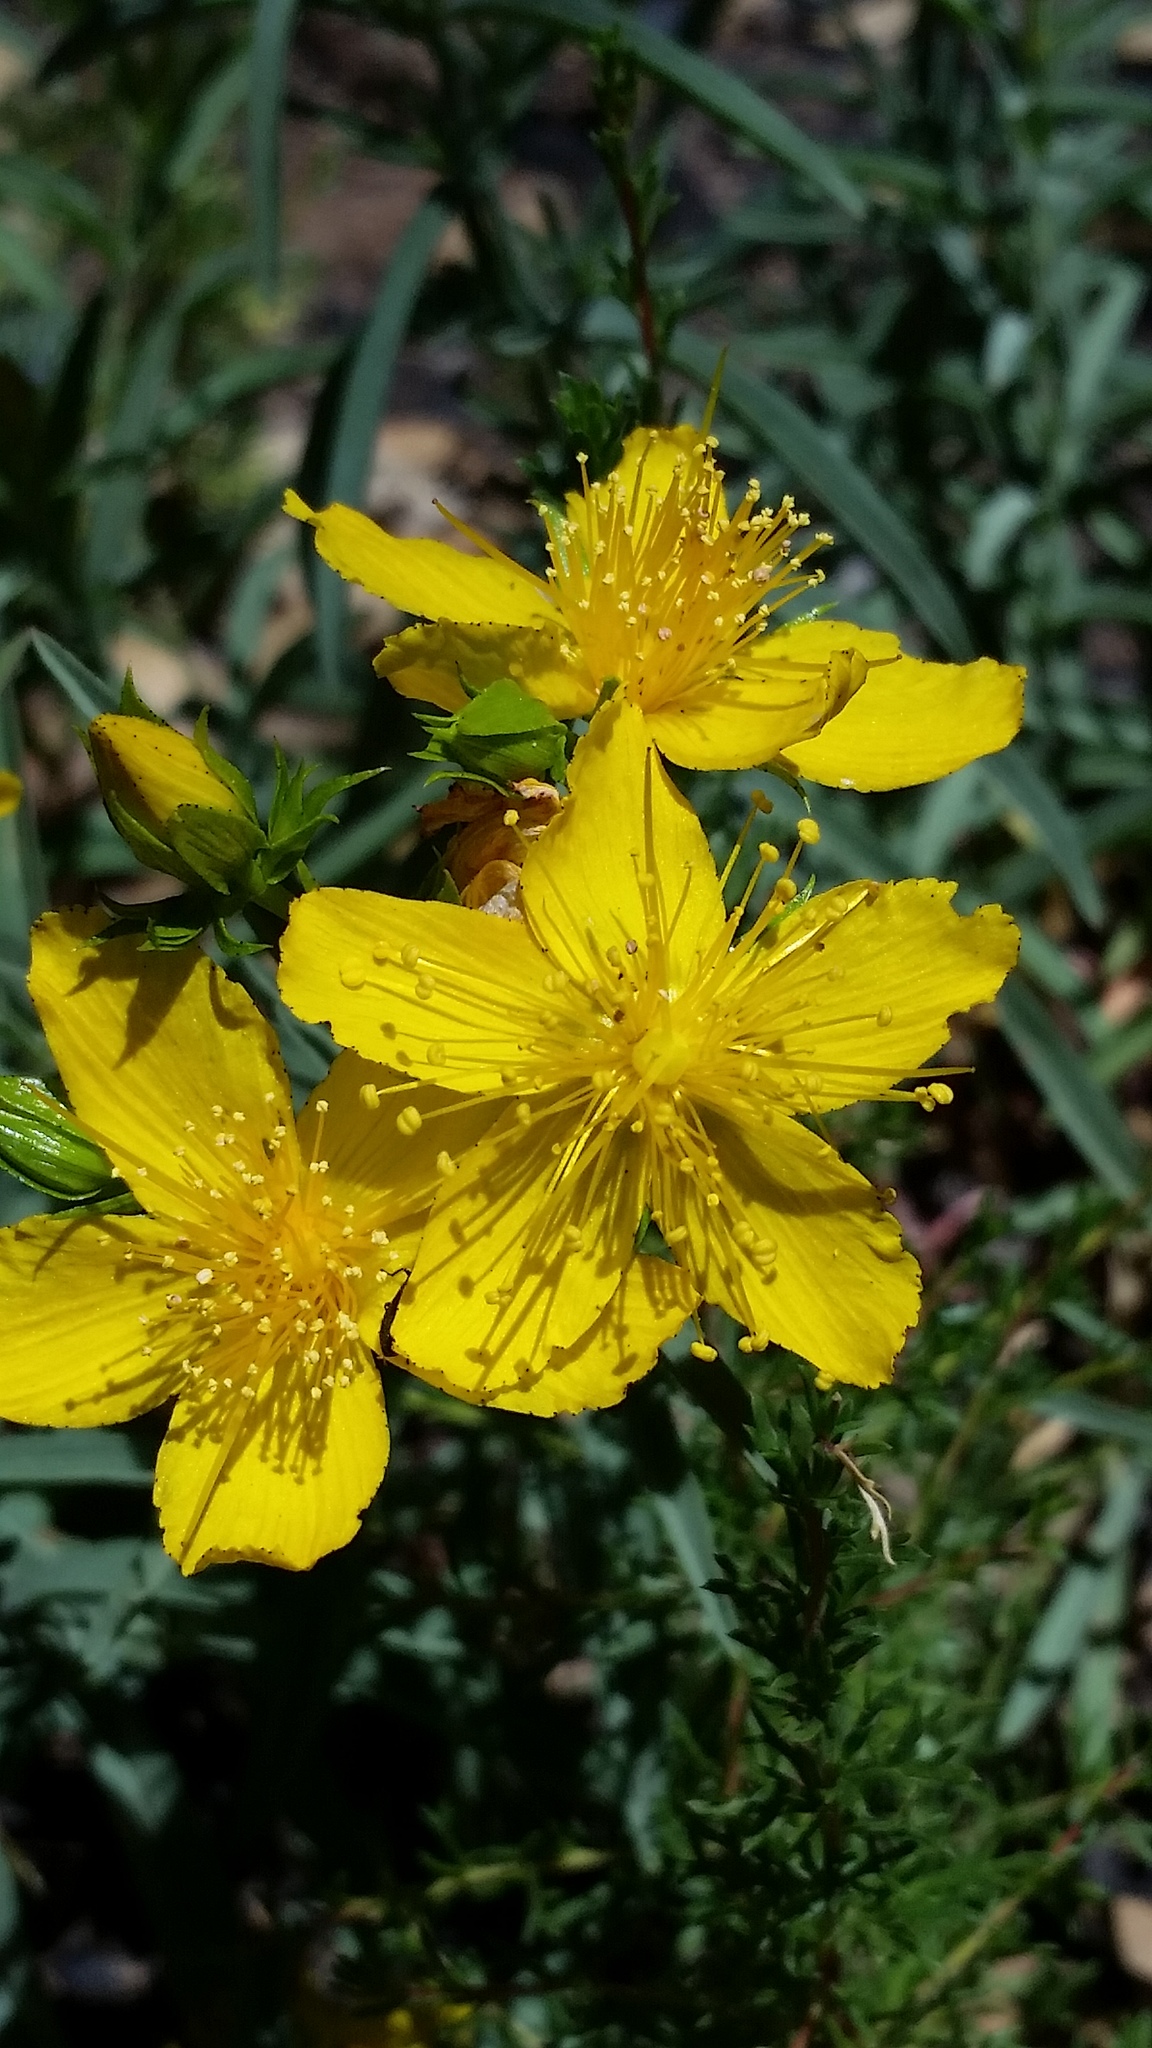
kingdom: Plantae
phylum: Tracheophyta
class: Magnoliopsida
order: Malpighiales
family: Hypericaceae
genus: Hypericum
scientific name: Hypericum concinnum
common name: Gold-wire
